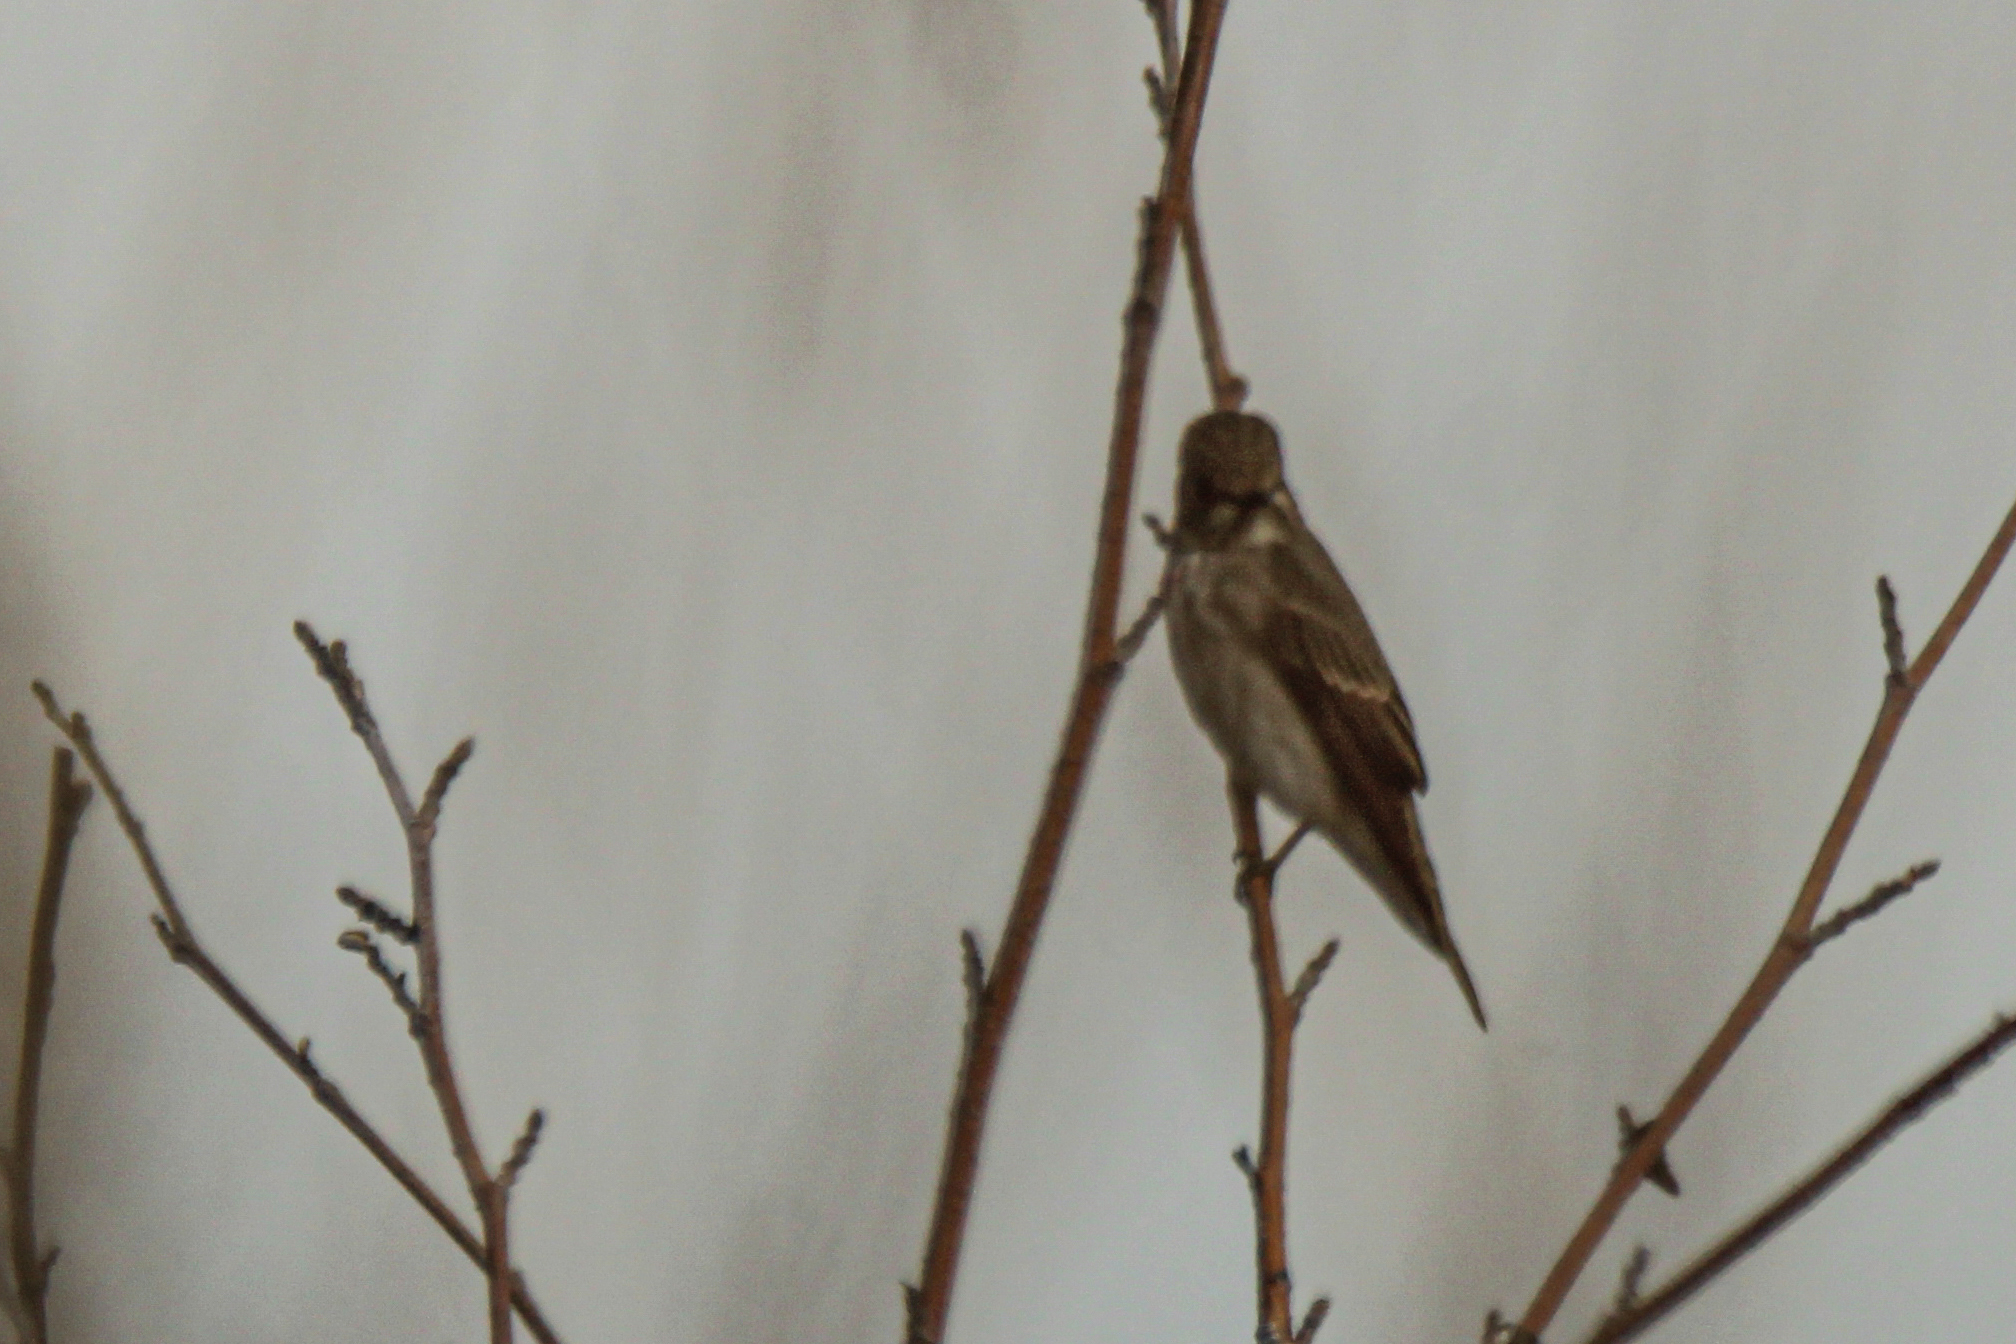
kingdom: Animalia
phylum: Chordata
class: Aves
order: Passeriformes
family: Muscicapidae
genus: Muscicapa
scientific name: Muscicapa sibirica
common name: Dark-sided flycatcher
